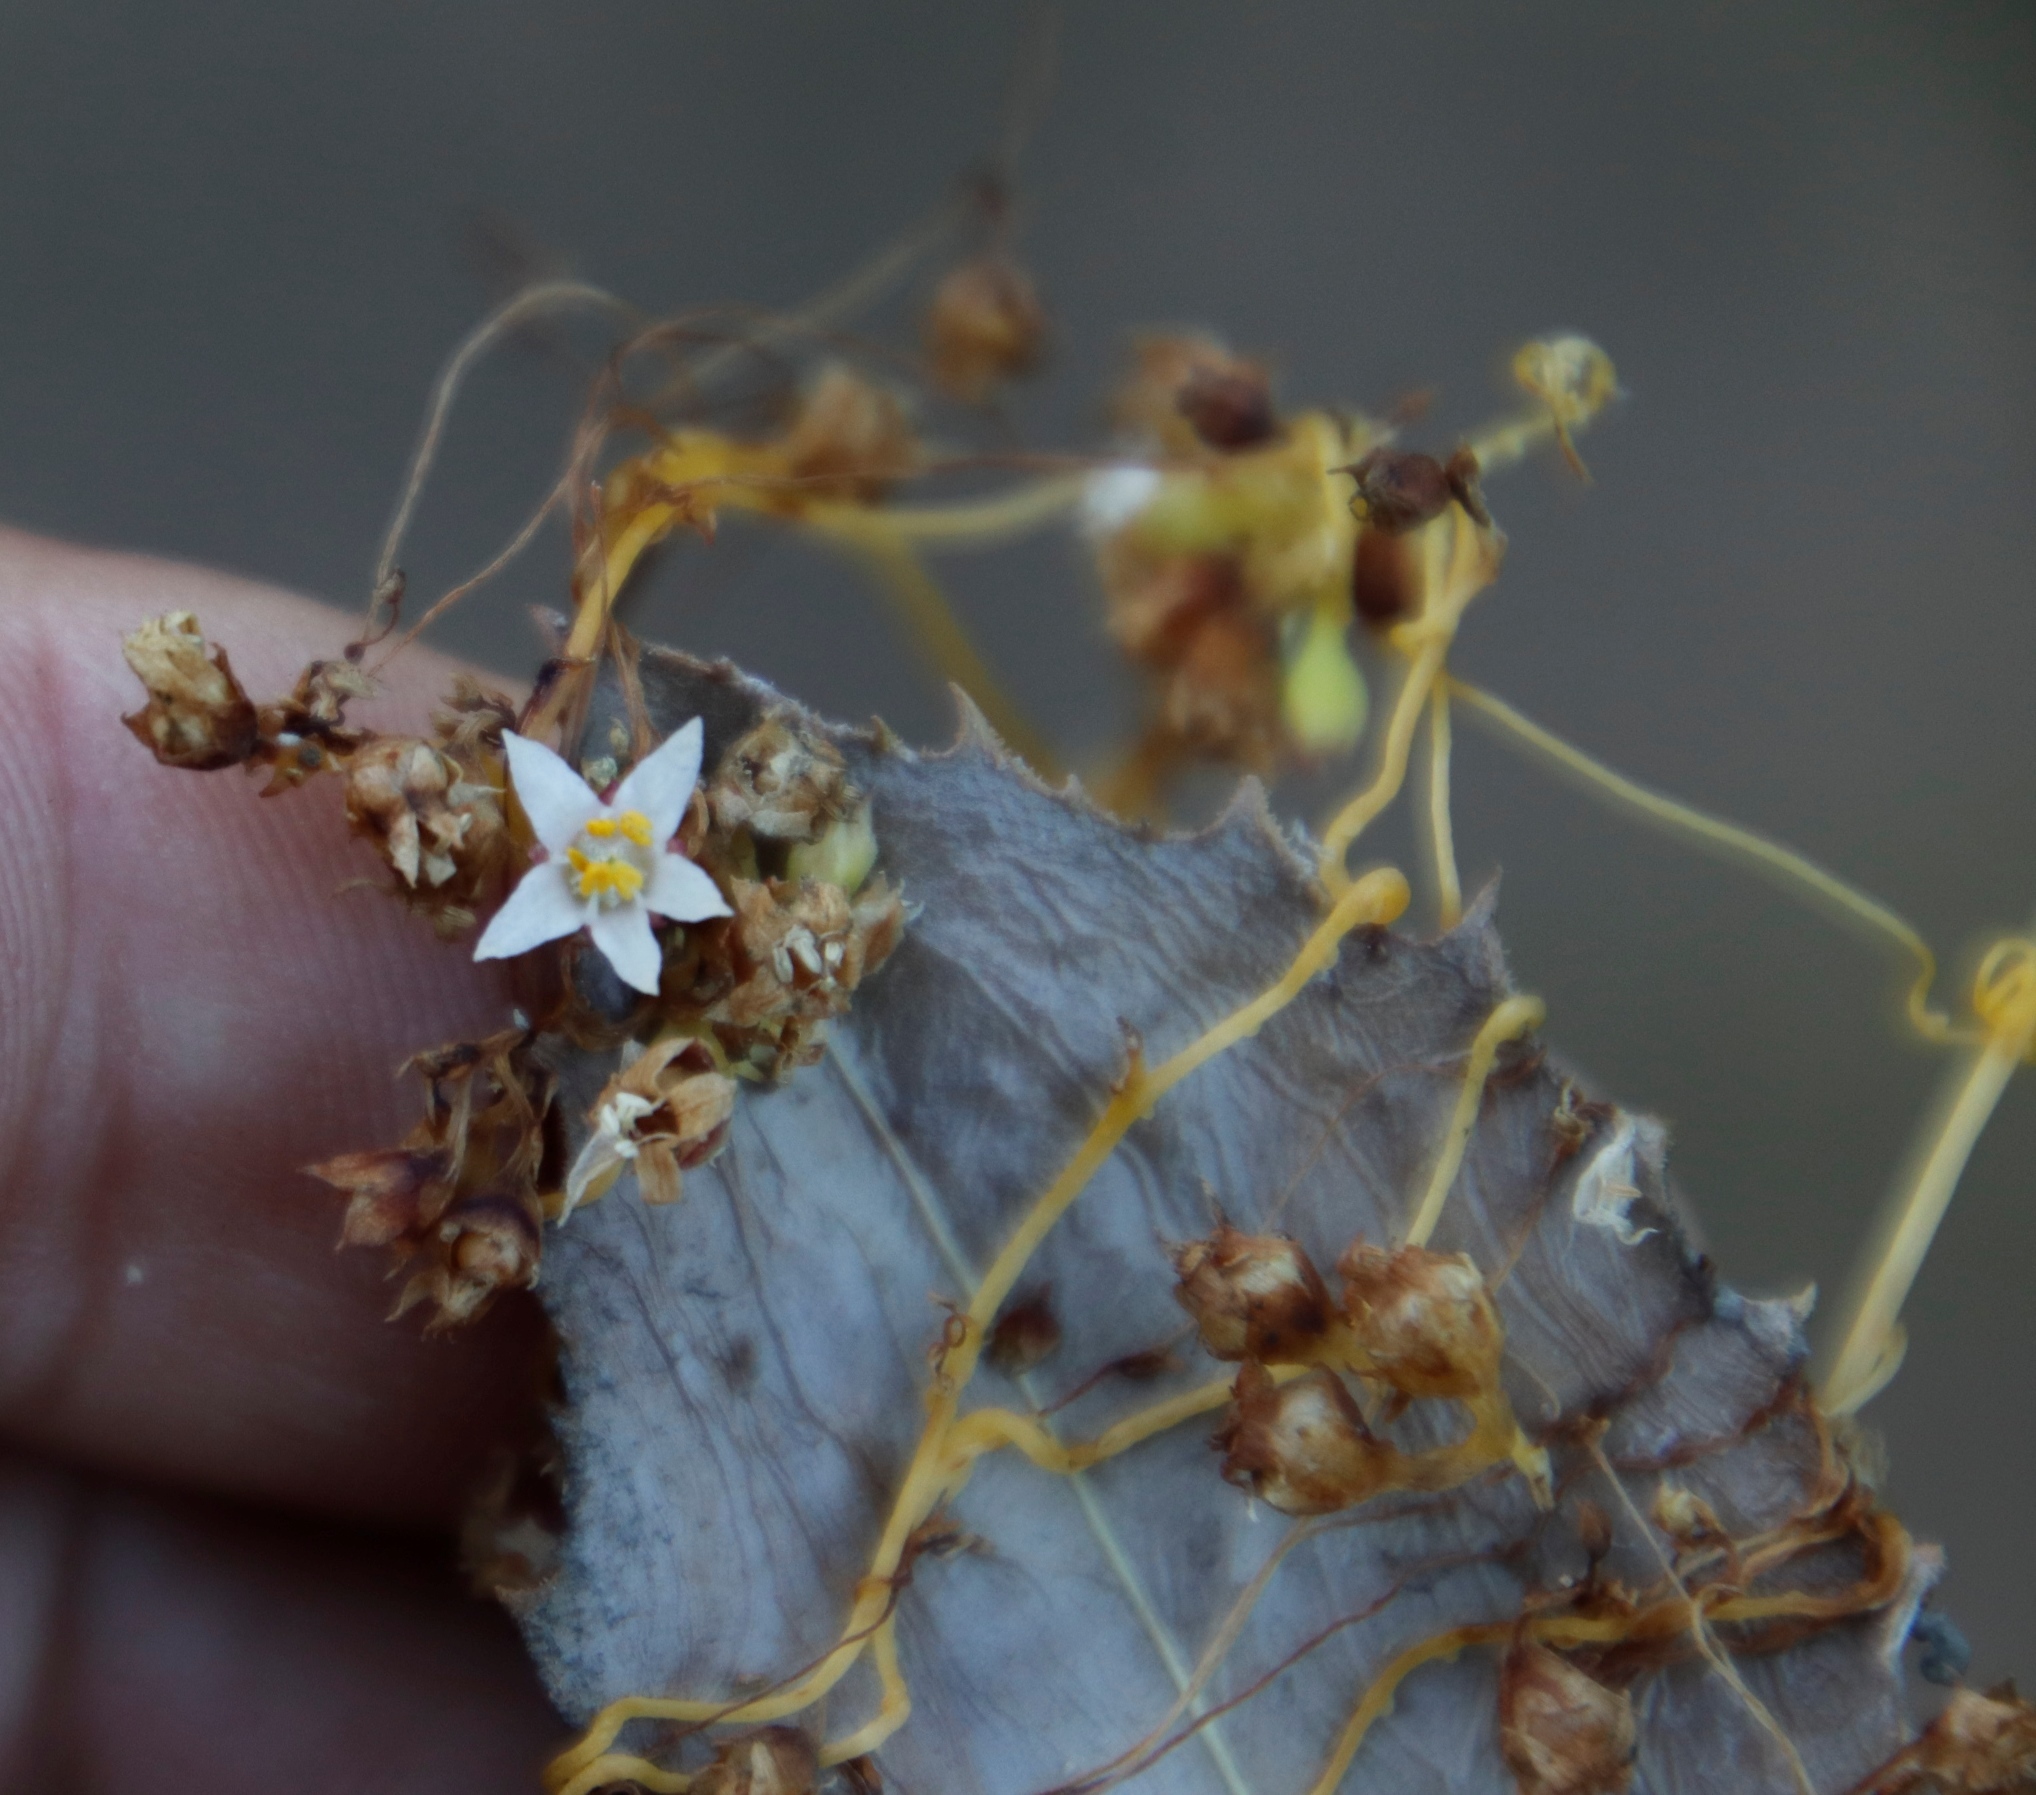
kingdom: Plantae
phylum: Tracheophyta
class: Magnoliopsida
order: Solanales
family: Convolvulaceae
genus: Cuscuta
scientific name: Cuscuta nitida
